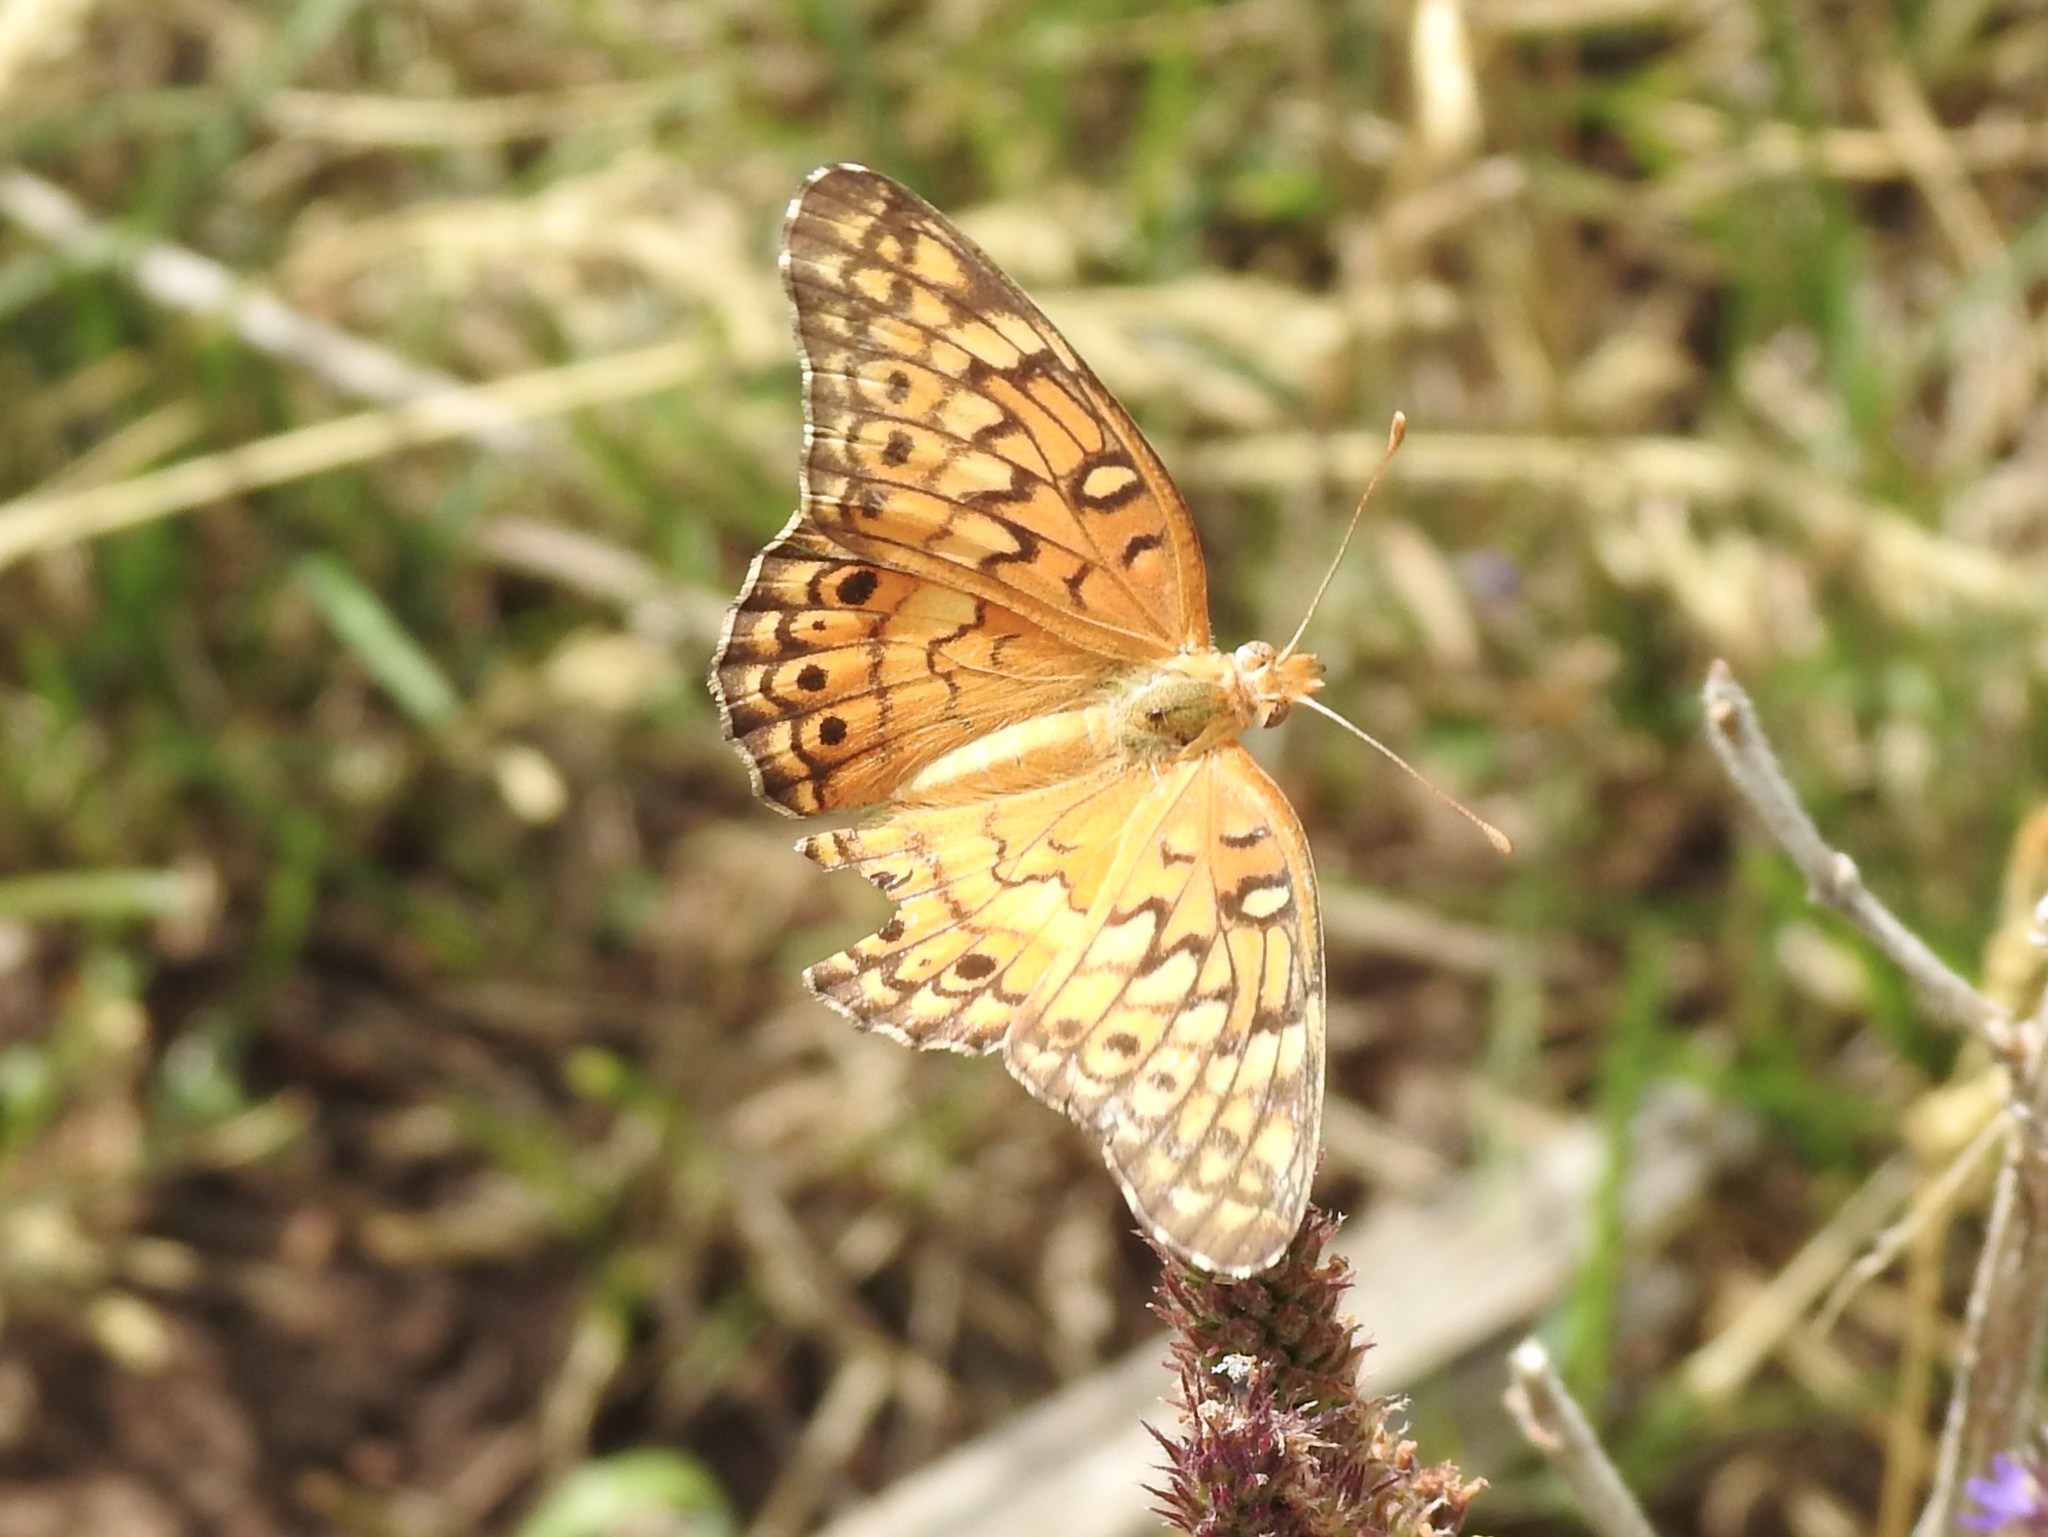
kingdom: Animalia
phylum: Arthropoda
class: Insecta
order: Lepidoptera
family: Nymphalidae
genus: Euptoieta
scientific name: Euptoieta claudia
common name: Variegated fritillary
